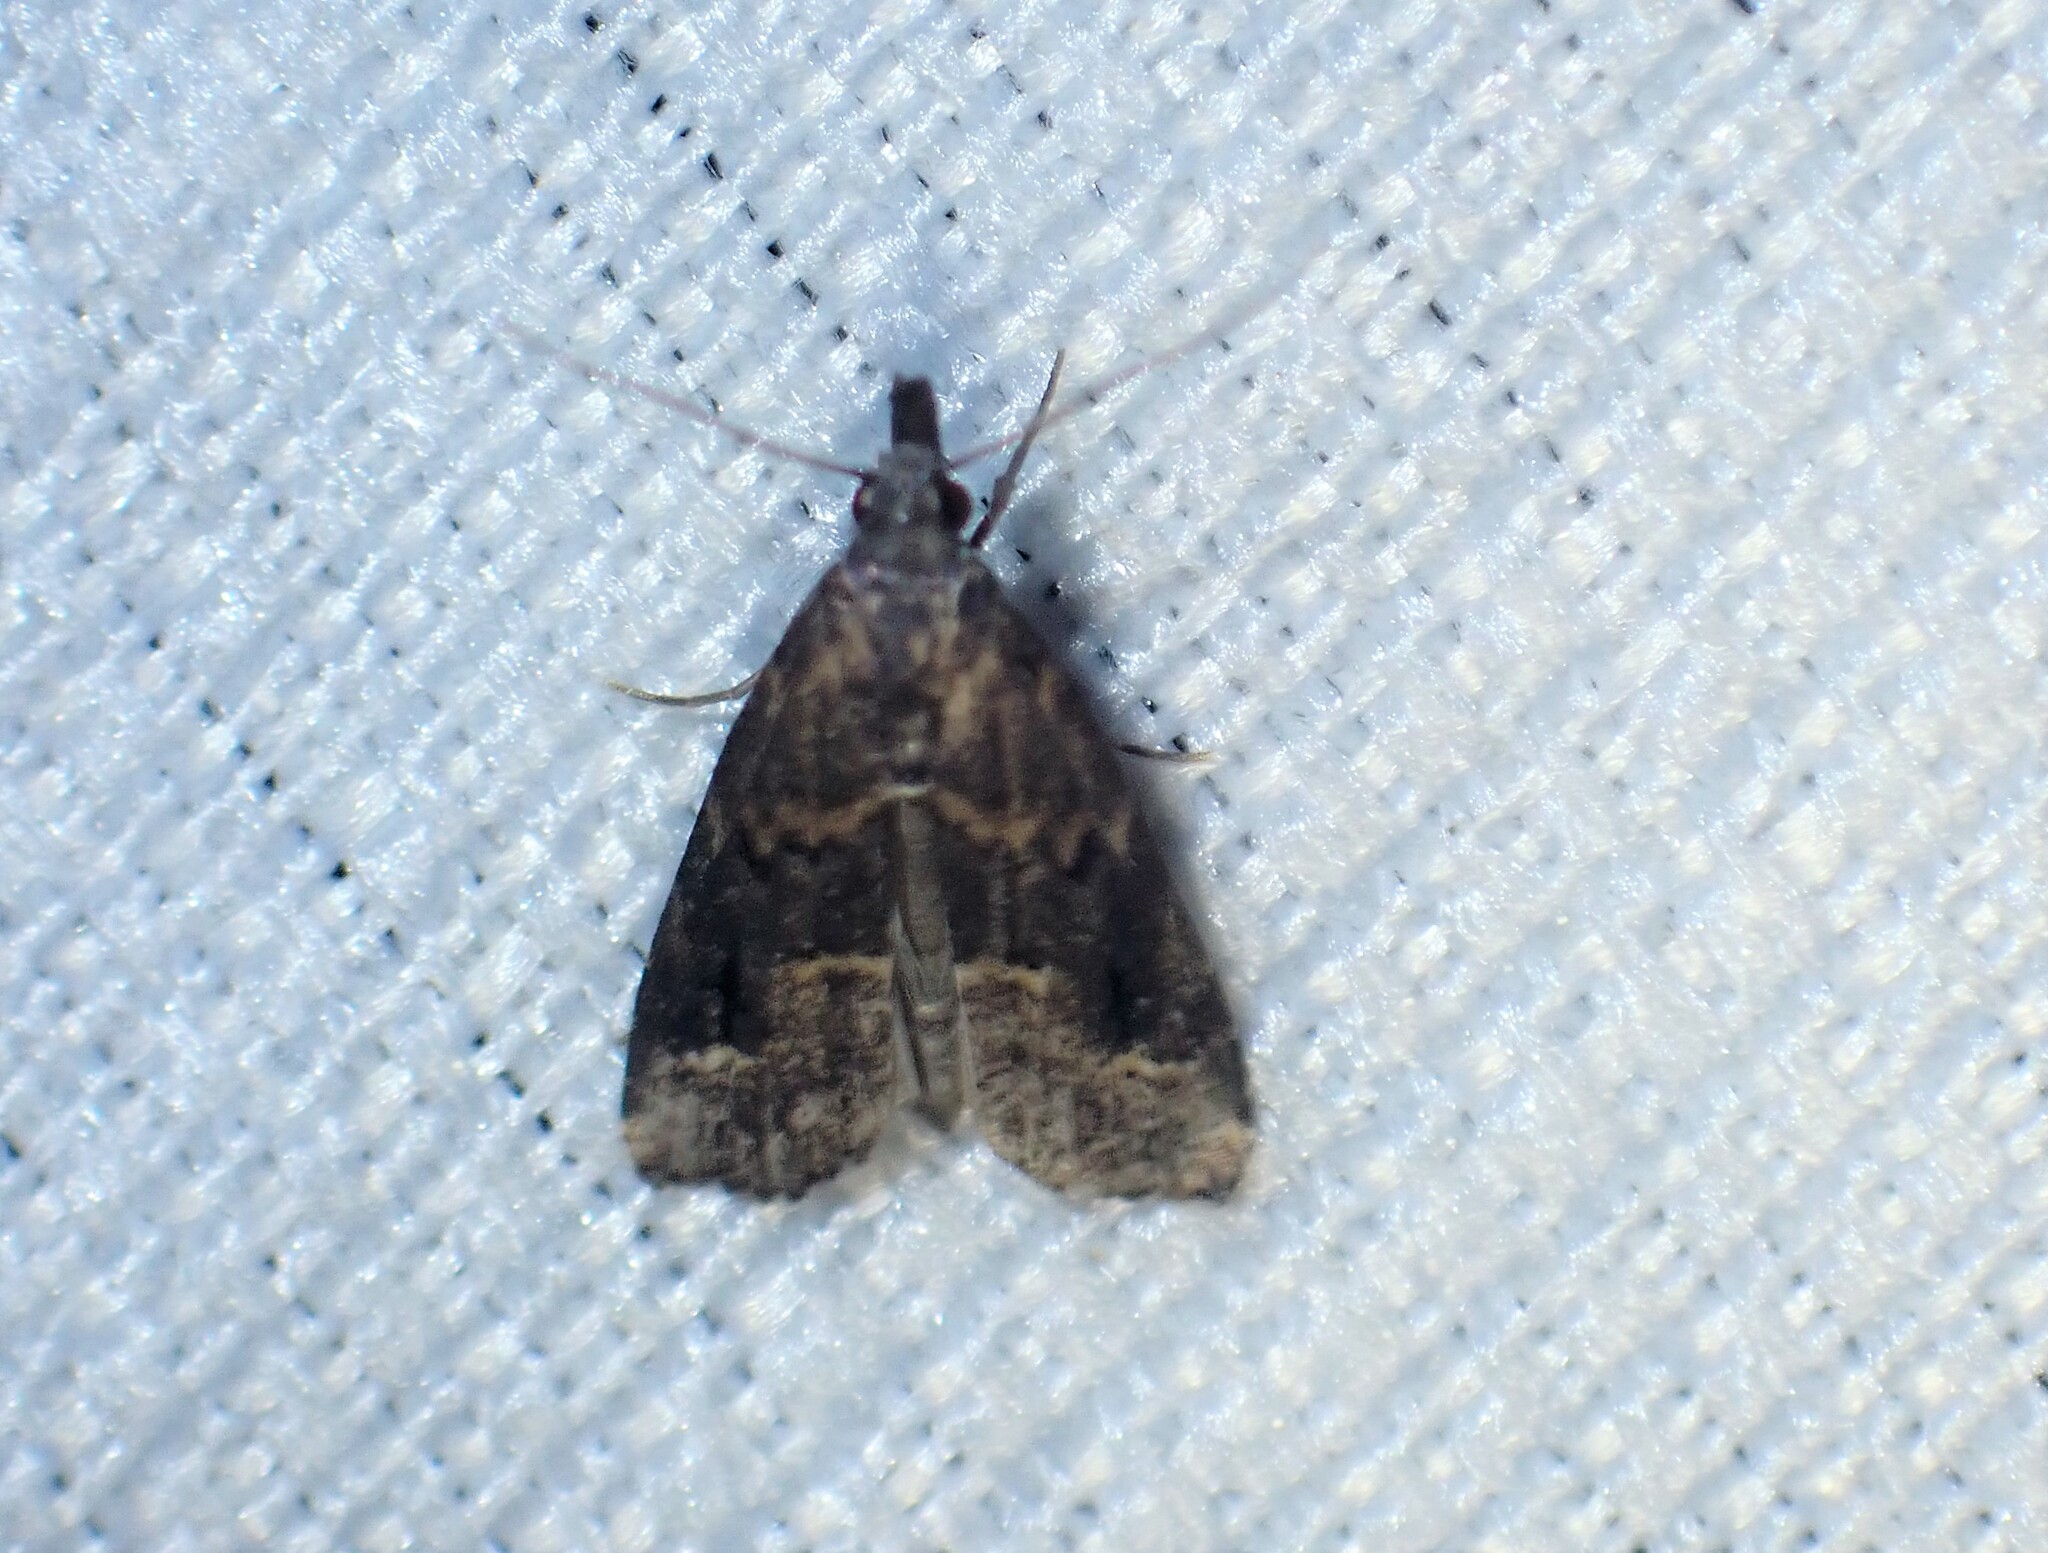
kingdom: Animalia
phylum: Arthropoda
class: Insecta
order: Lepidoptera
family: Erebidae
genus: Schrankia
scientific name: Schrankia costaestrigalis
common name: Pinion-streaked snout
